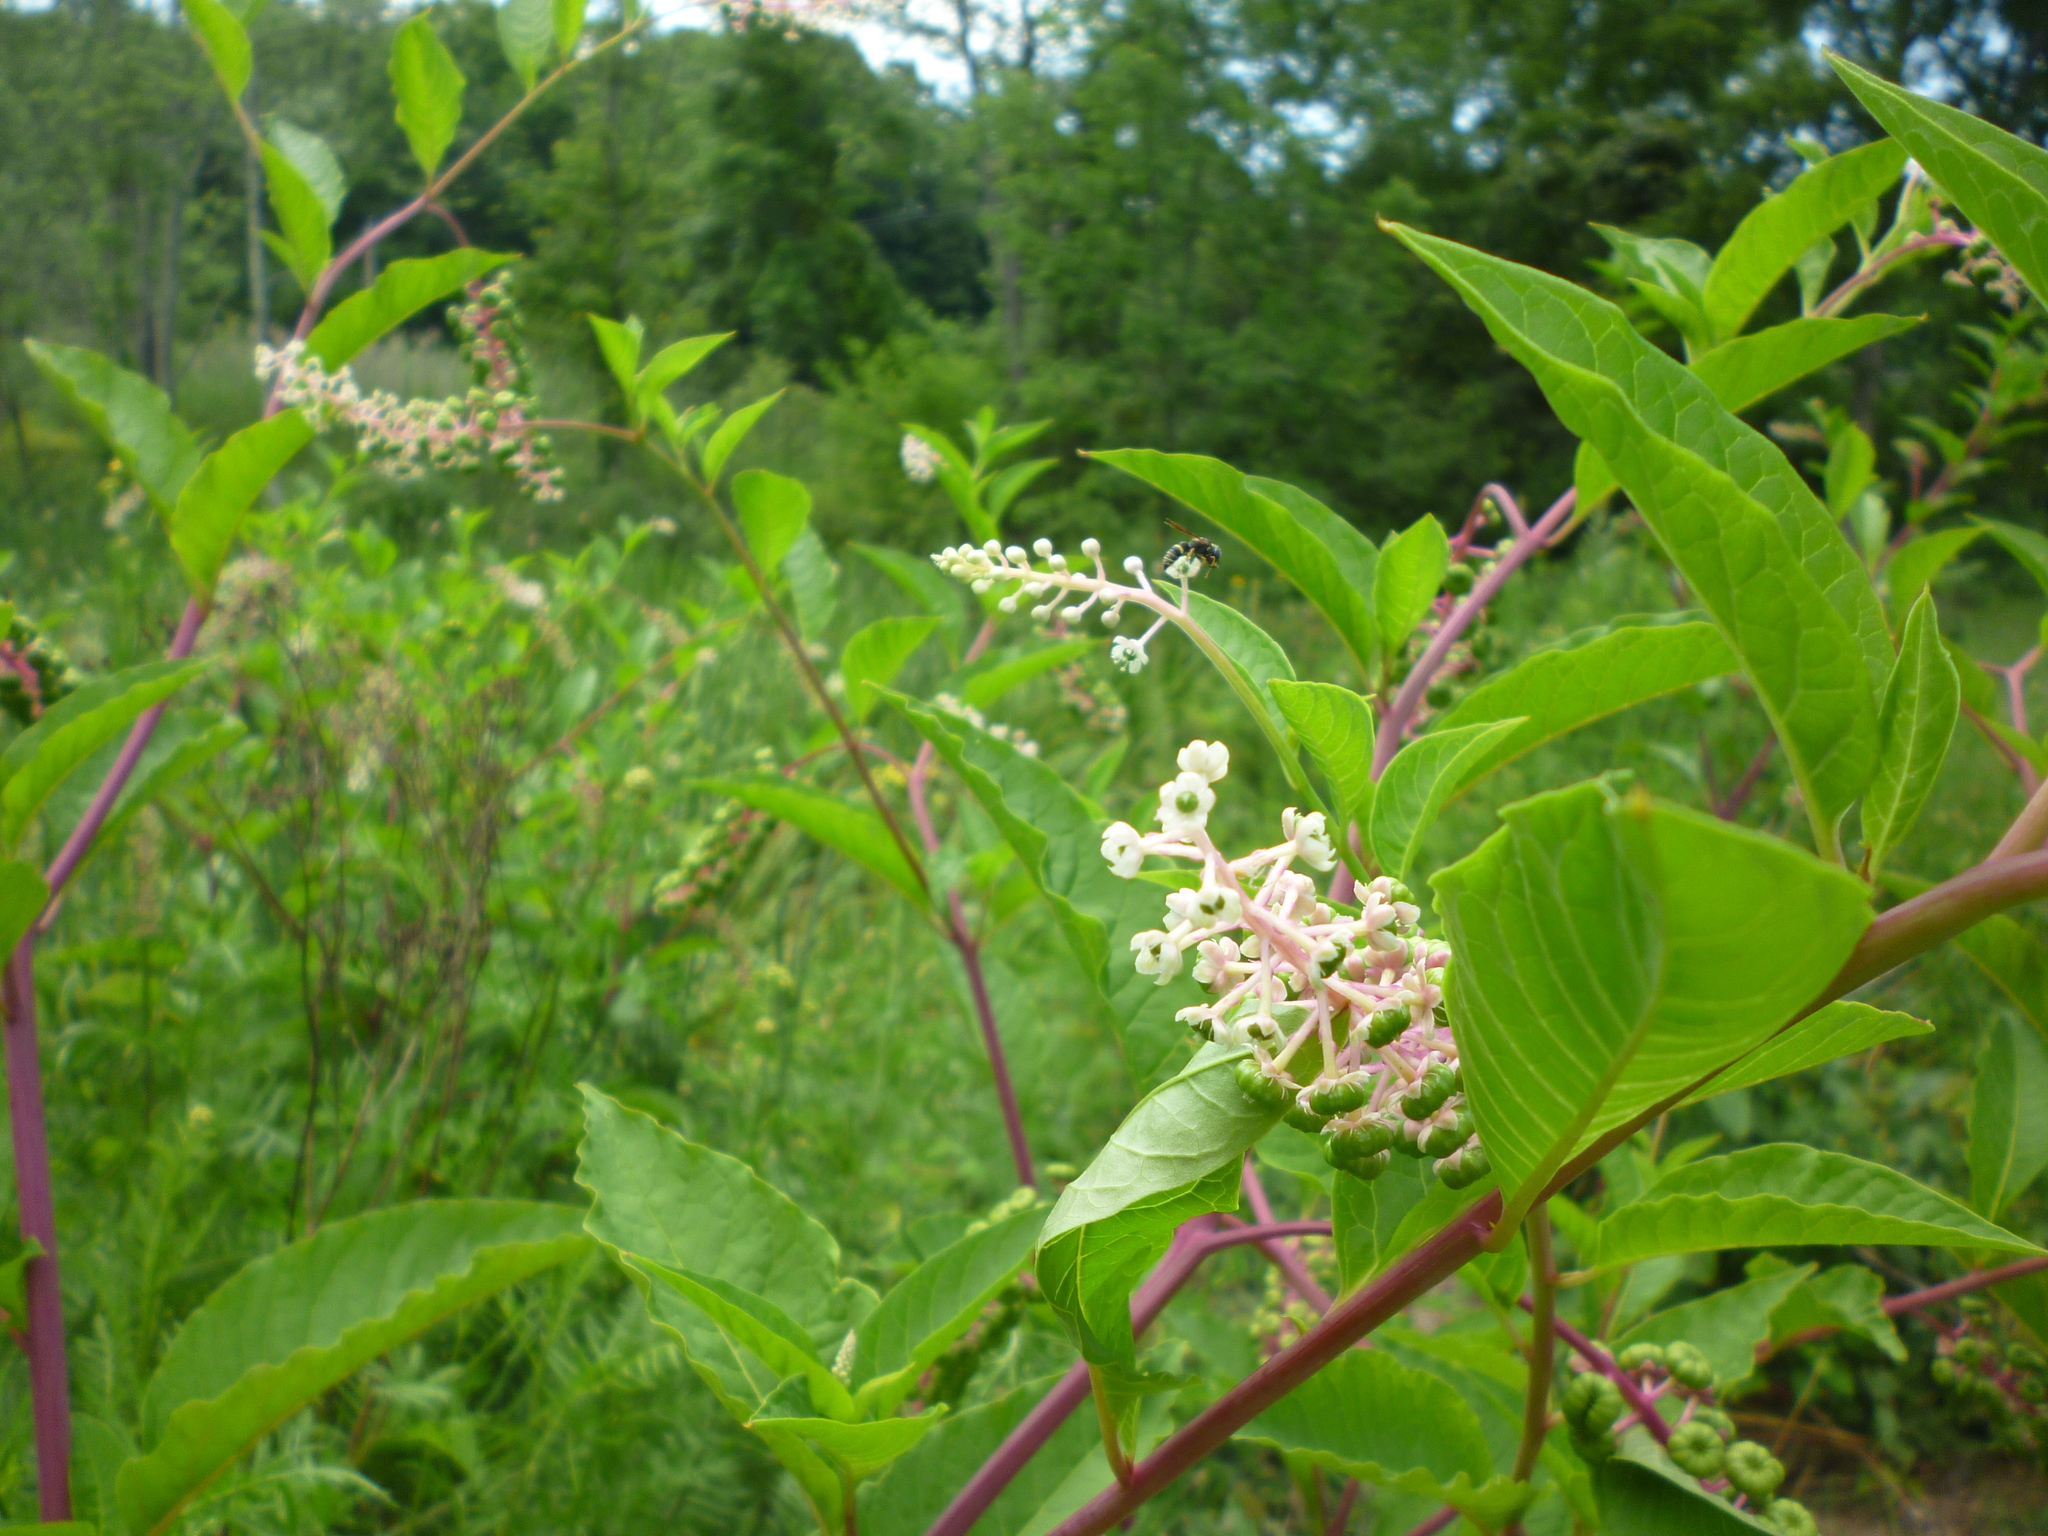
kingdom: Plantae
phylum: Tracheophyta
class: Magnoliopsida
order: Caryophyllales
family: Phytolaccaceae
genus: Phytolacca
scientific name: Phytolacca americana
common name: American pokeweed
